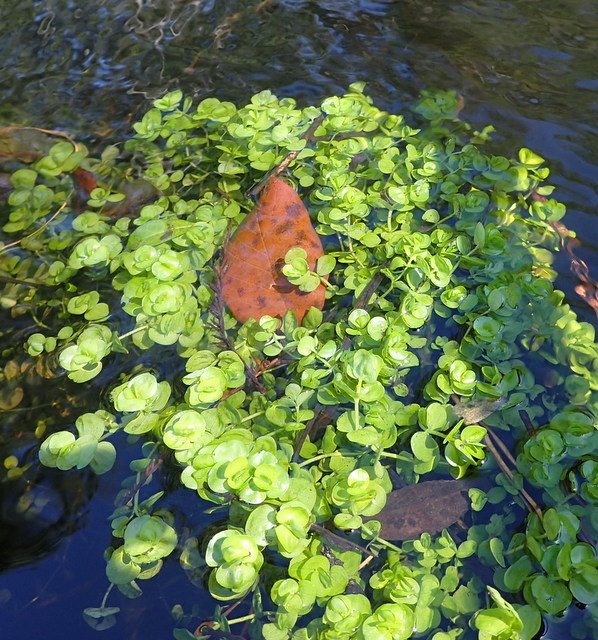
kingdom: Plantae
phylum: Tracheophyta
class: Magnoliopsida
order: Lamiales
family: Linderniaceae
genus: Micranthemum
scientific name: Micranthemum umbrosum
